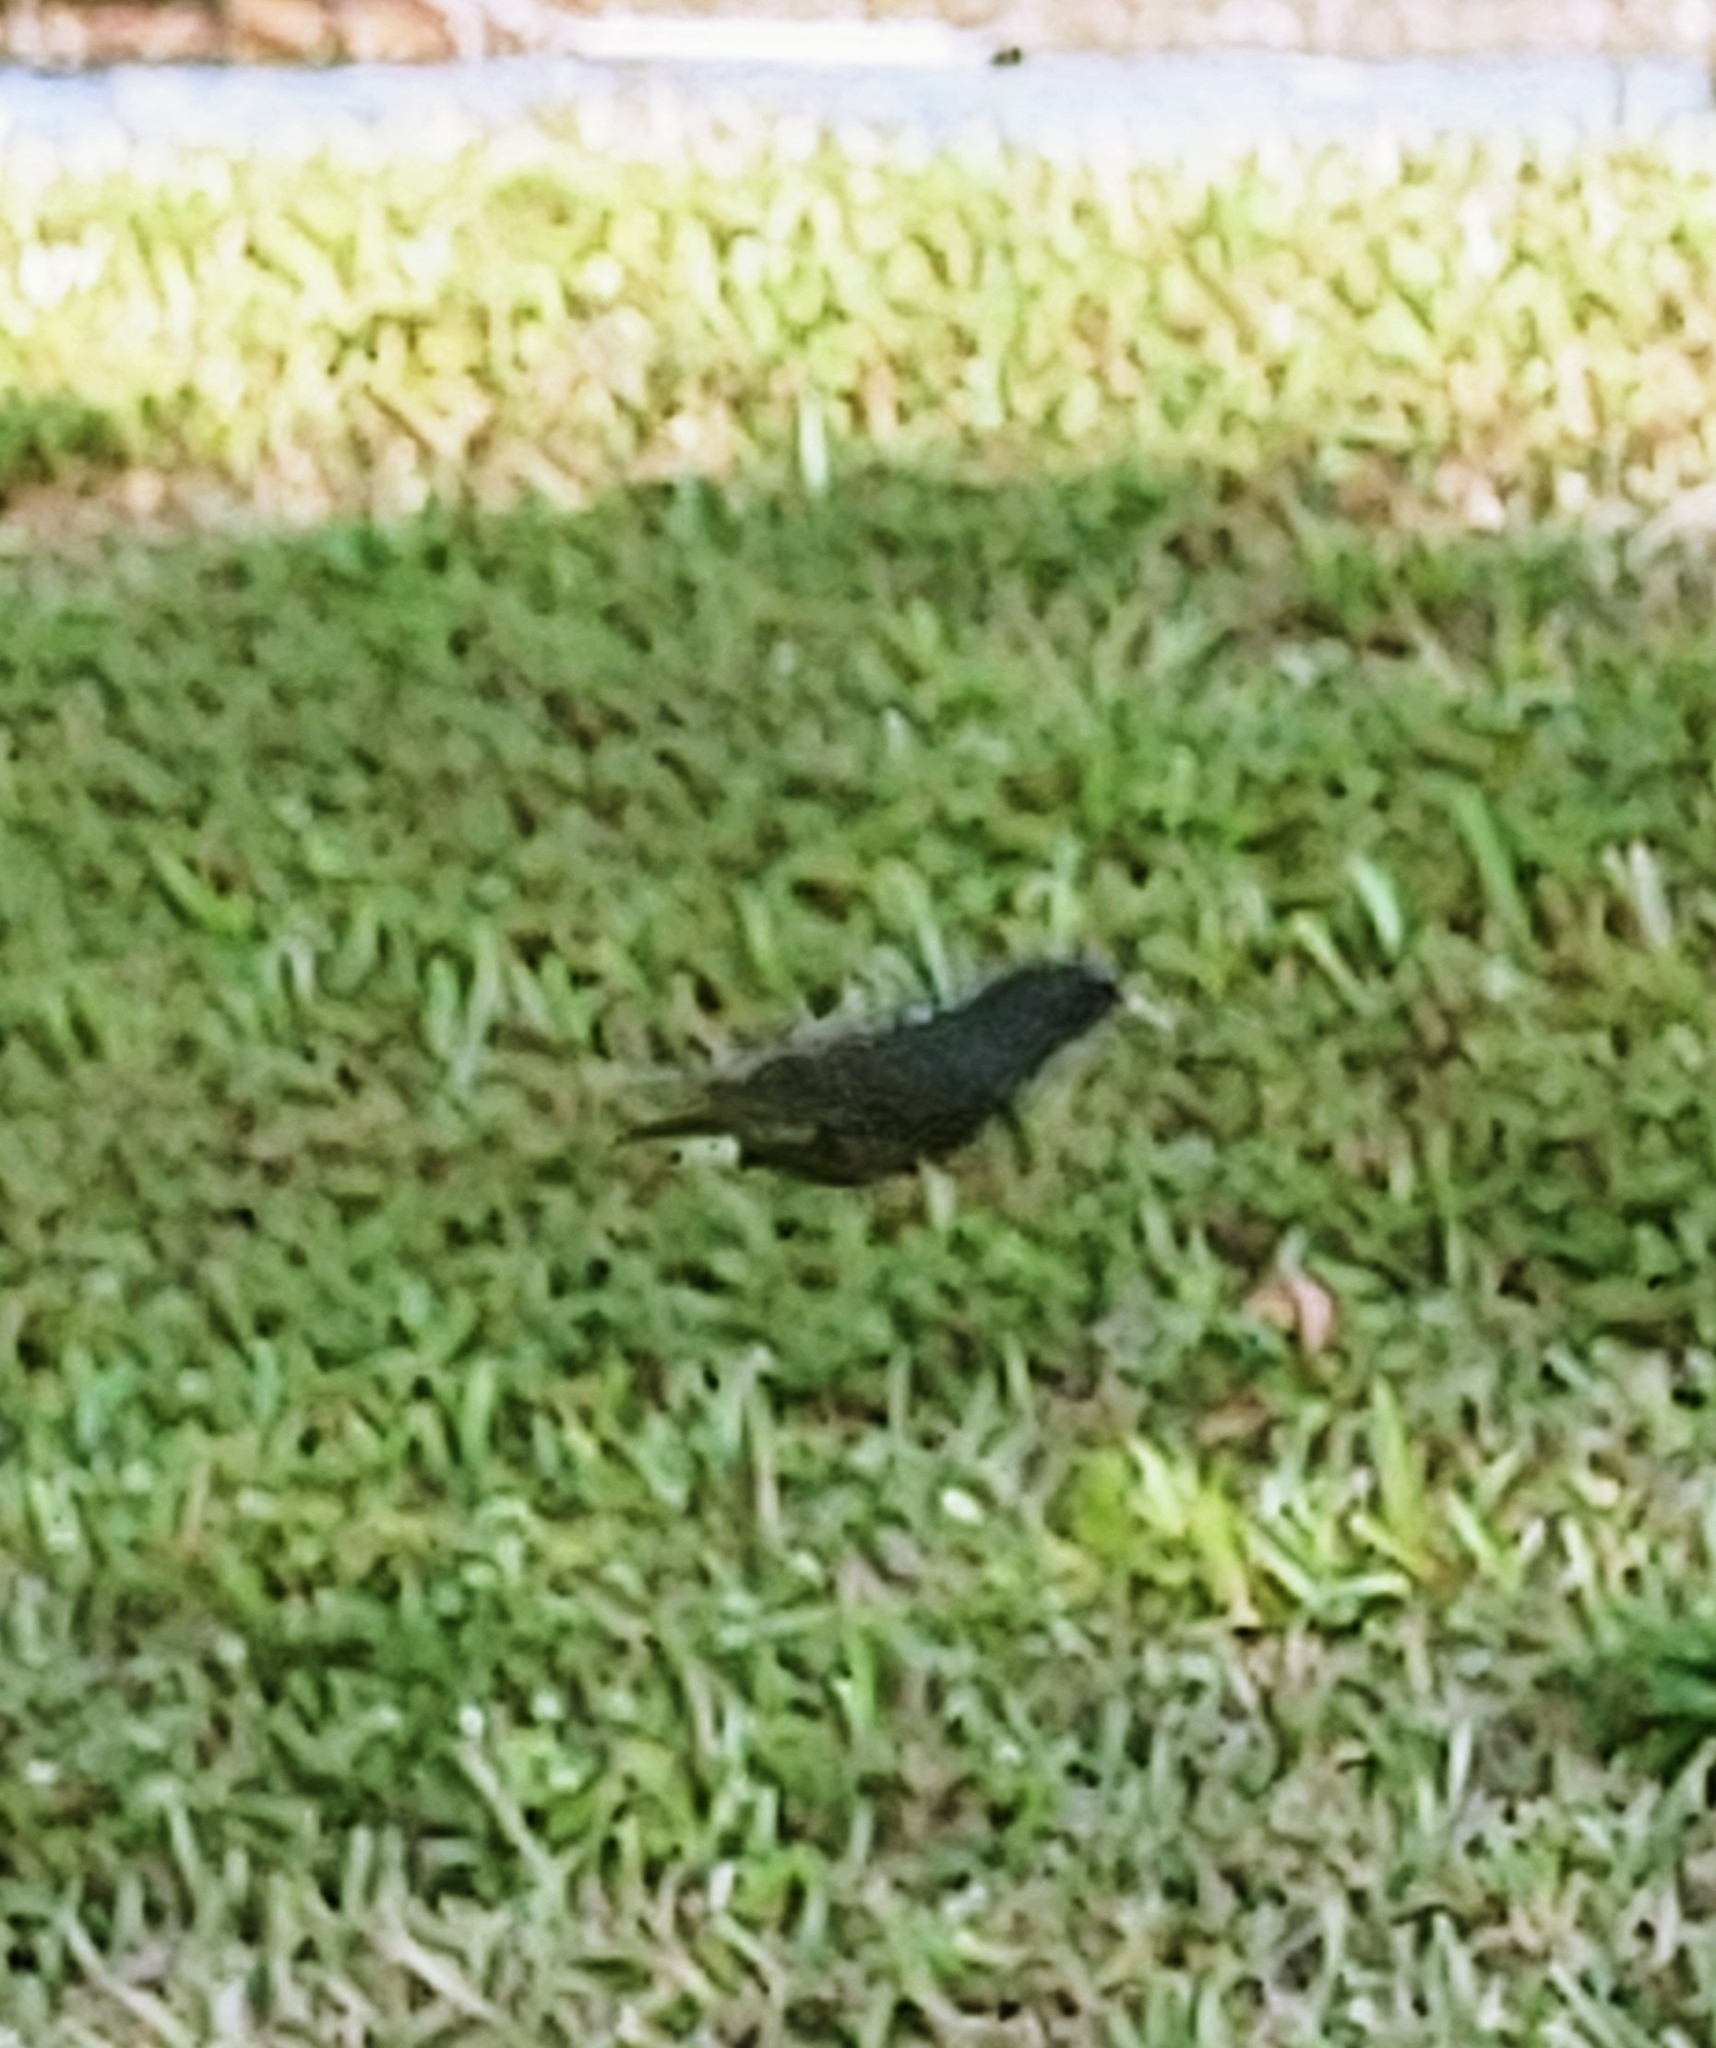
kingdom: Animalia
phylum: Chordata
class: Aves
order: Passeriformes
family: Sturnidae
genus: Sturnus
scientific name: Sturnus vulgaris
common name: Common starling
